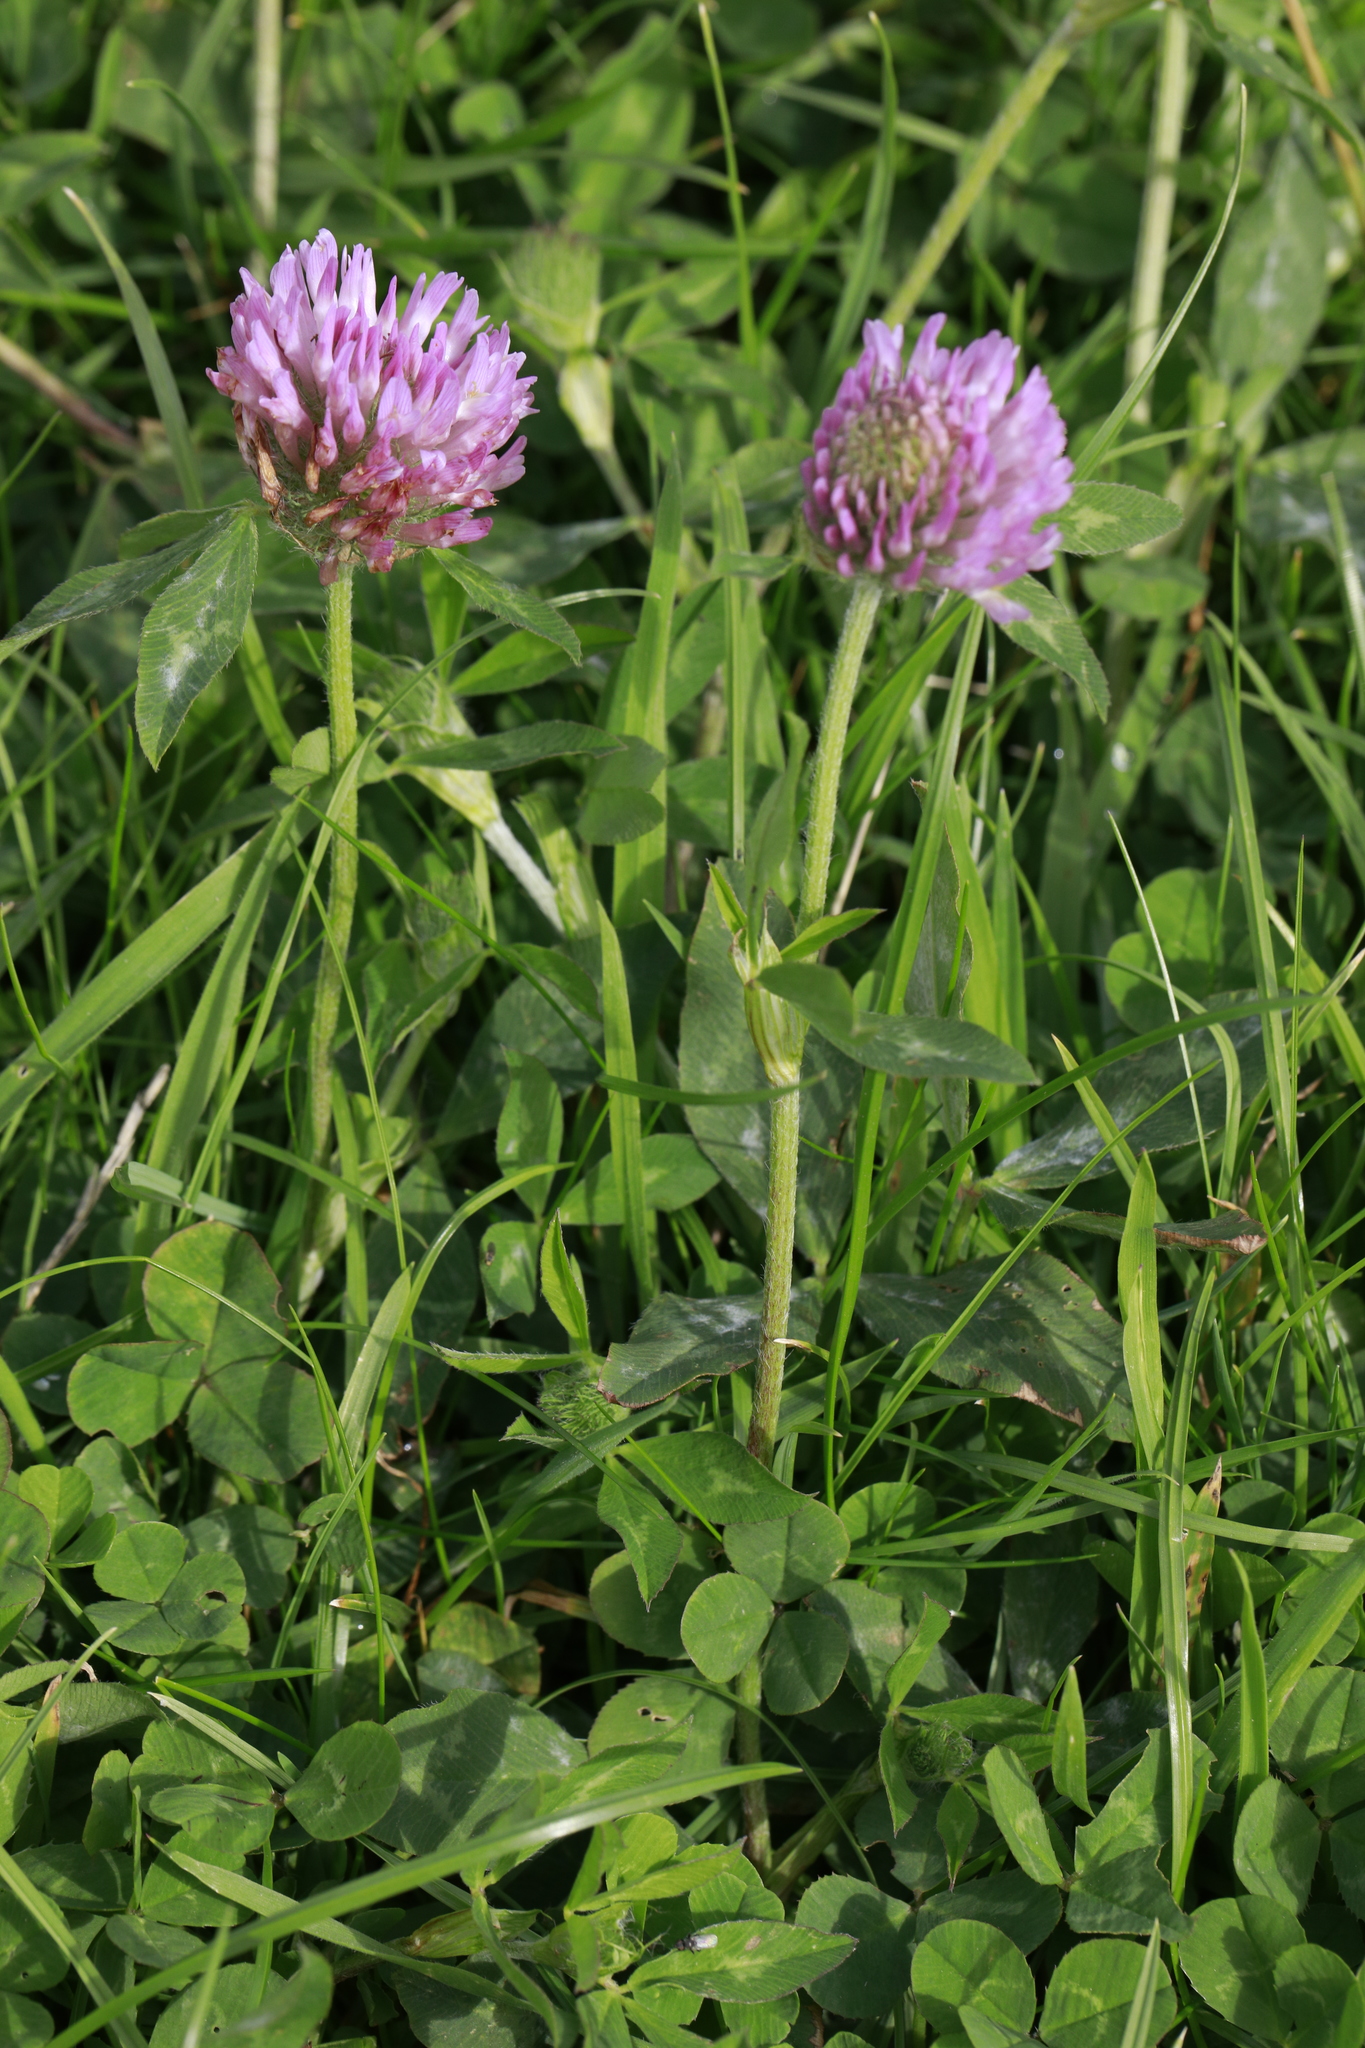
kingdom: Plantae
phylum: Tracheophyta
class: Magnoliopsida
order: Fabales
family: Fabaceae
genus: Trifolium
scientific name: Trifolium pratense
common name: Red clover
